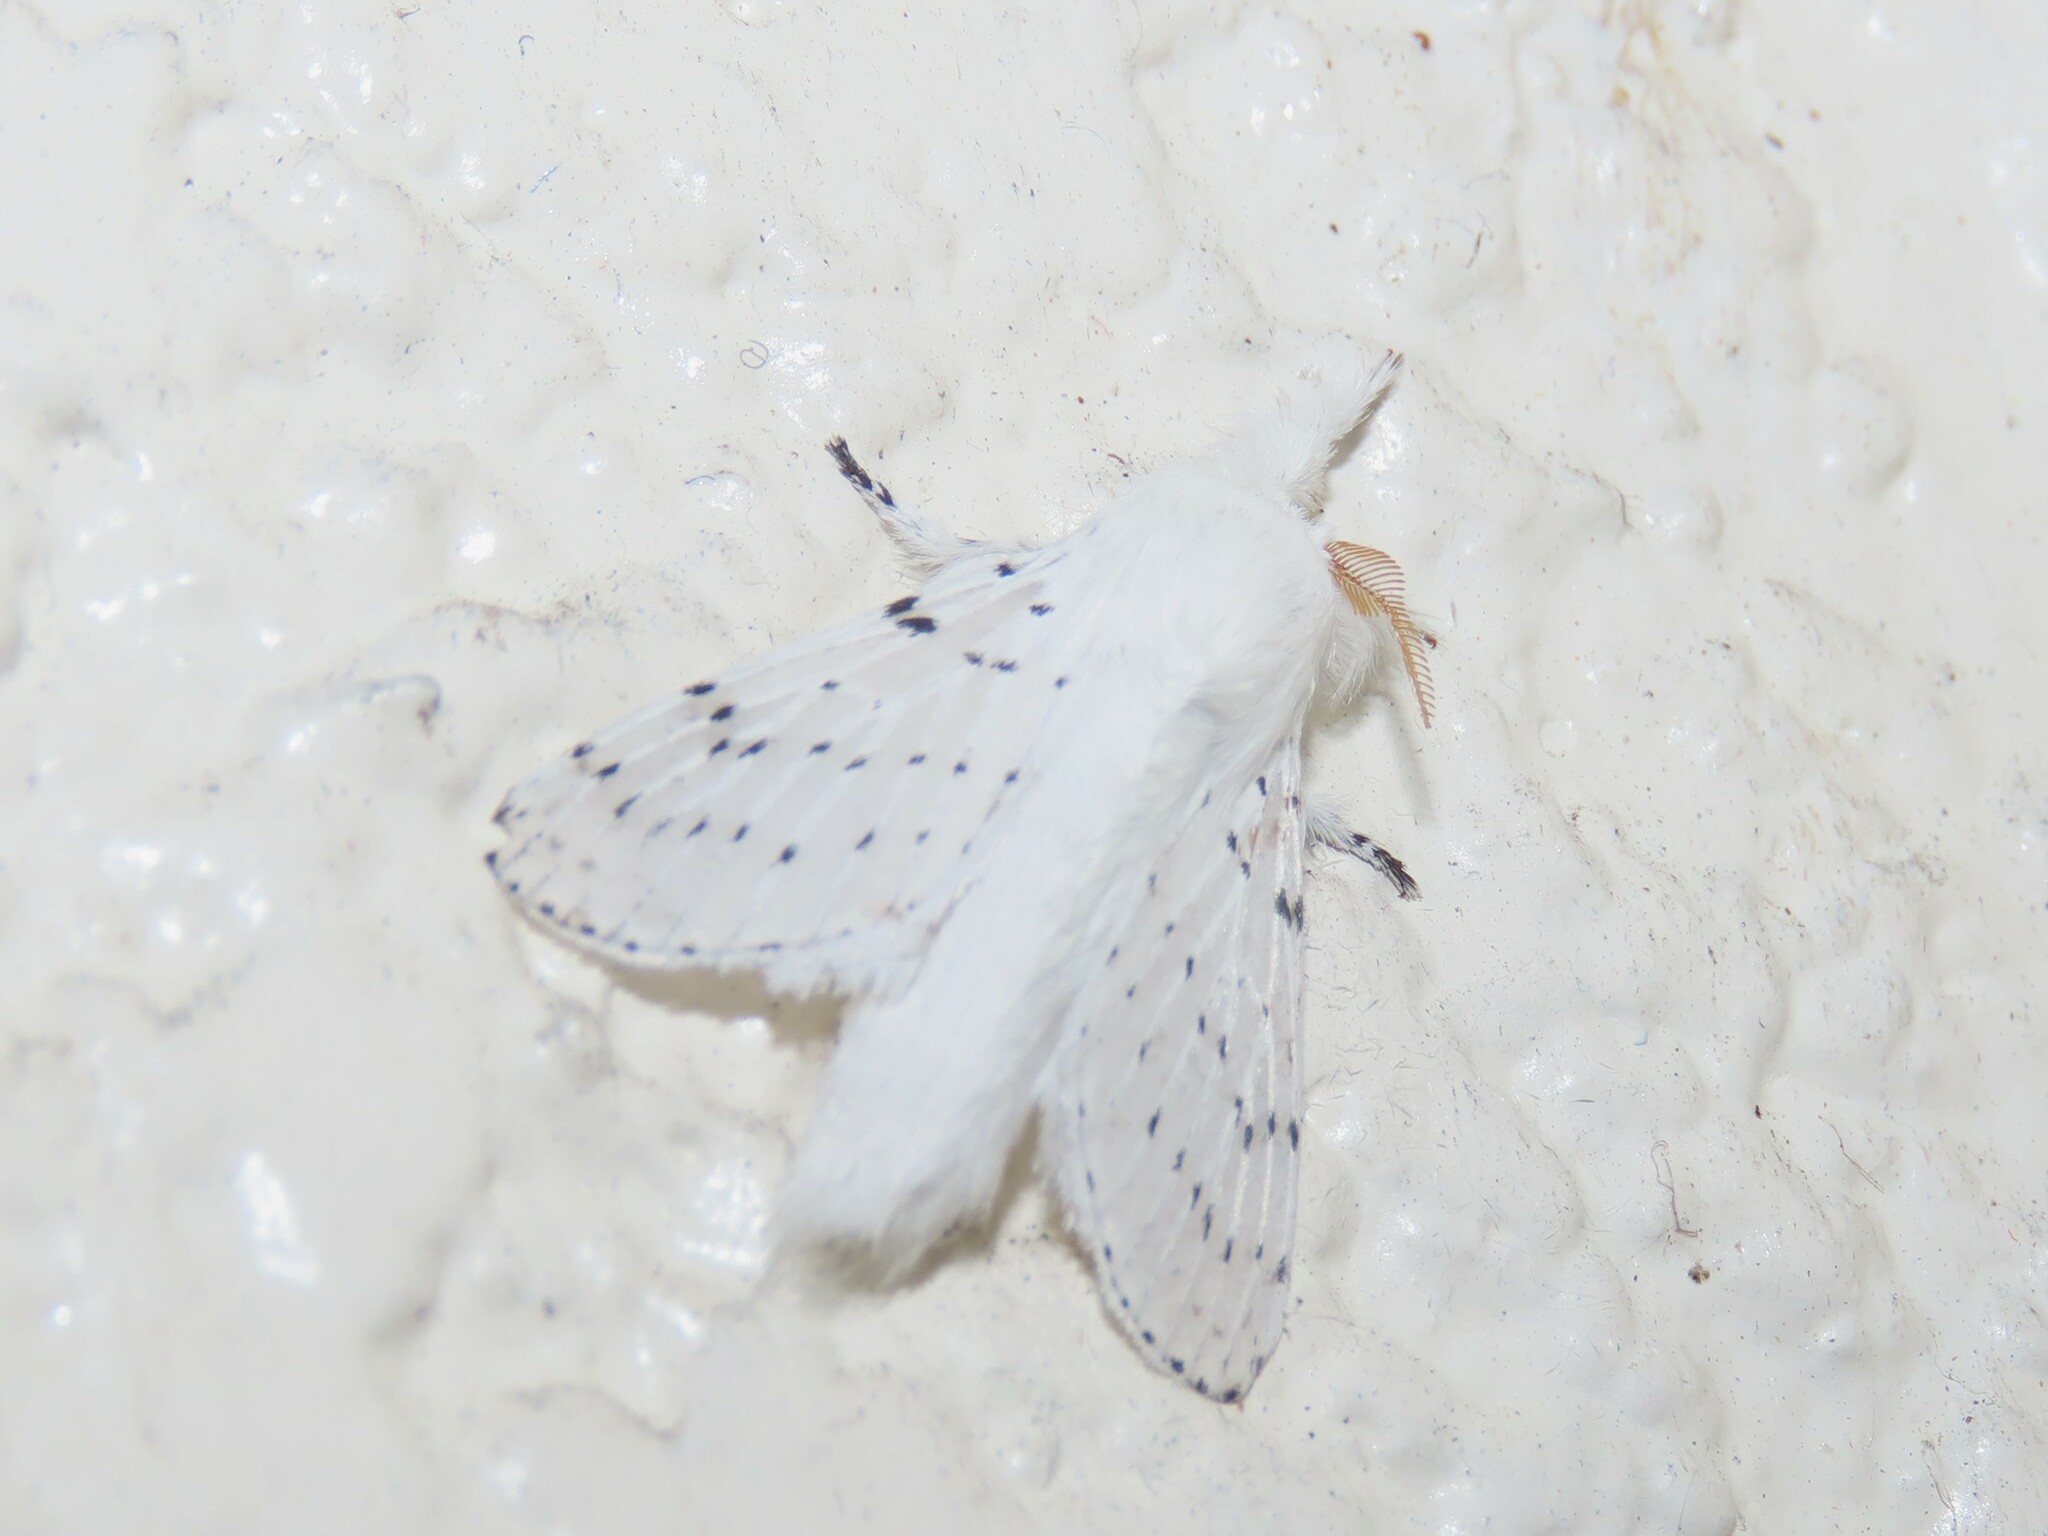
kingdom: Animalia
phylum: Arthropoda
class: Insecta
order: Lepidoptera
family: Lasiocampidae
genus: Artace
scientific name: Artace cribrarius
